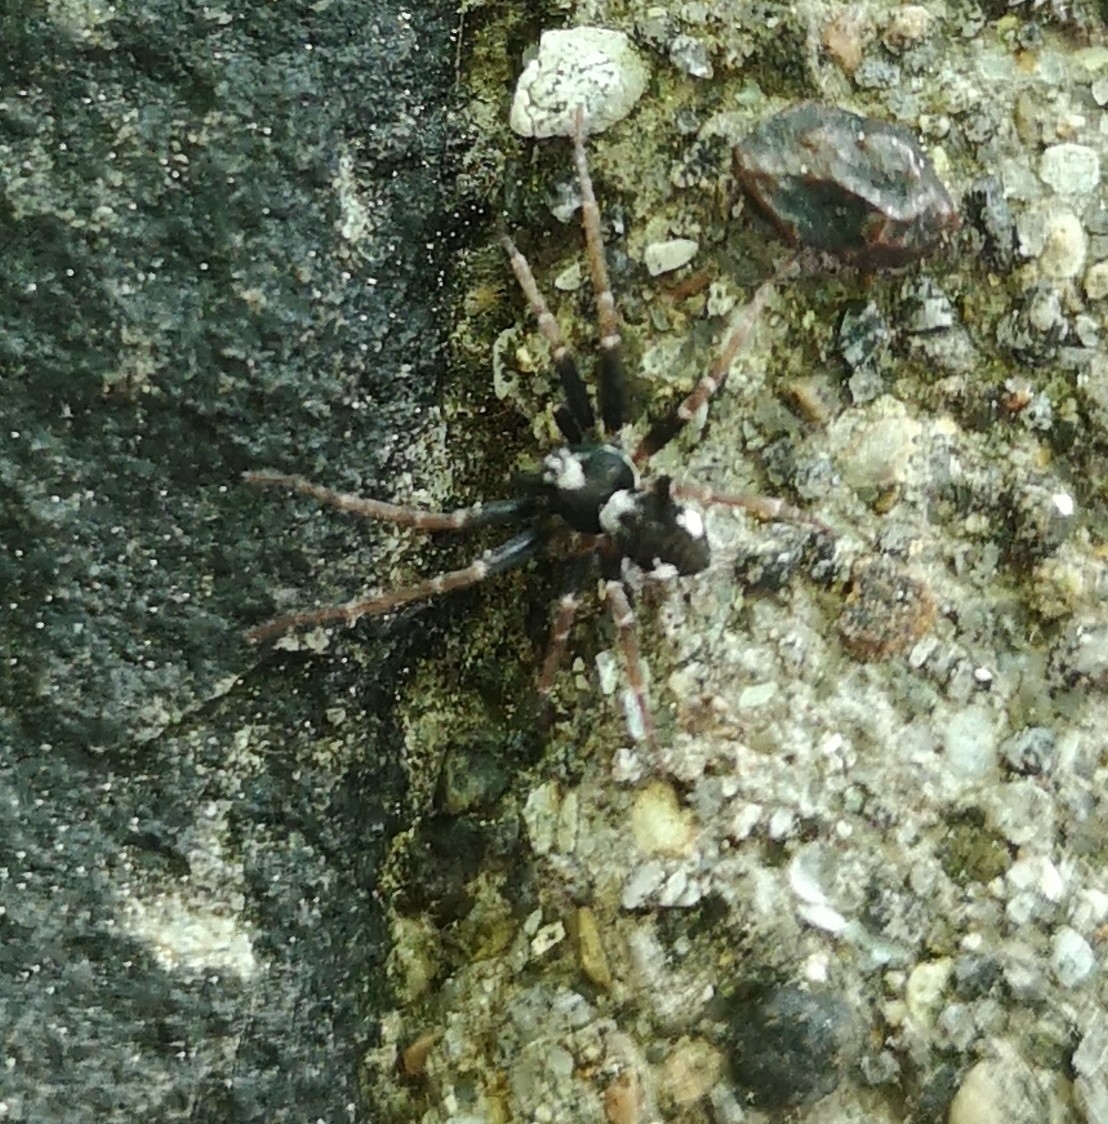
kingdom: Animalia
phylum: Arthropoda
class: Arachnida
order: Araneae
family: Philodromidae
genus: Pulchellodromus
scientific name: Pulchellodromus bistigma
